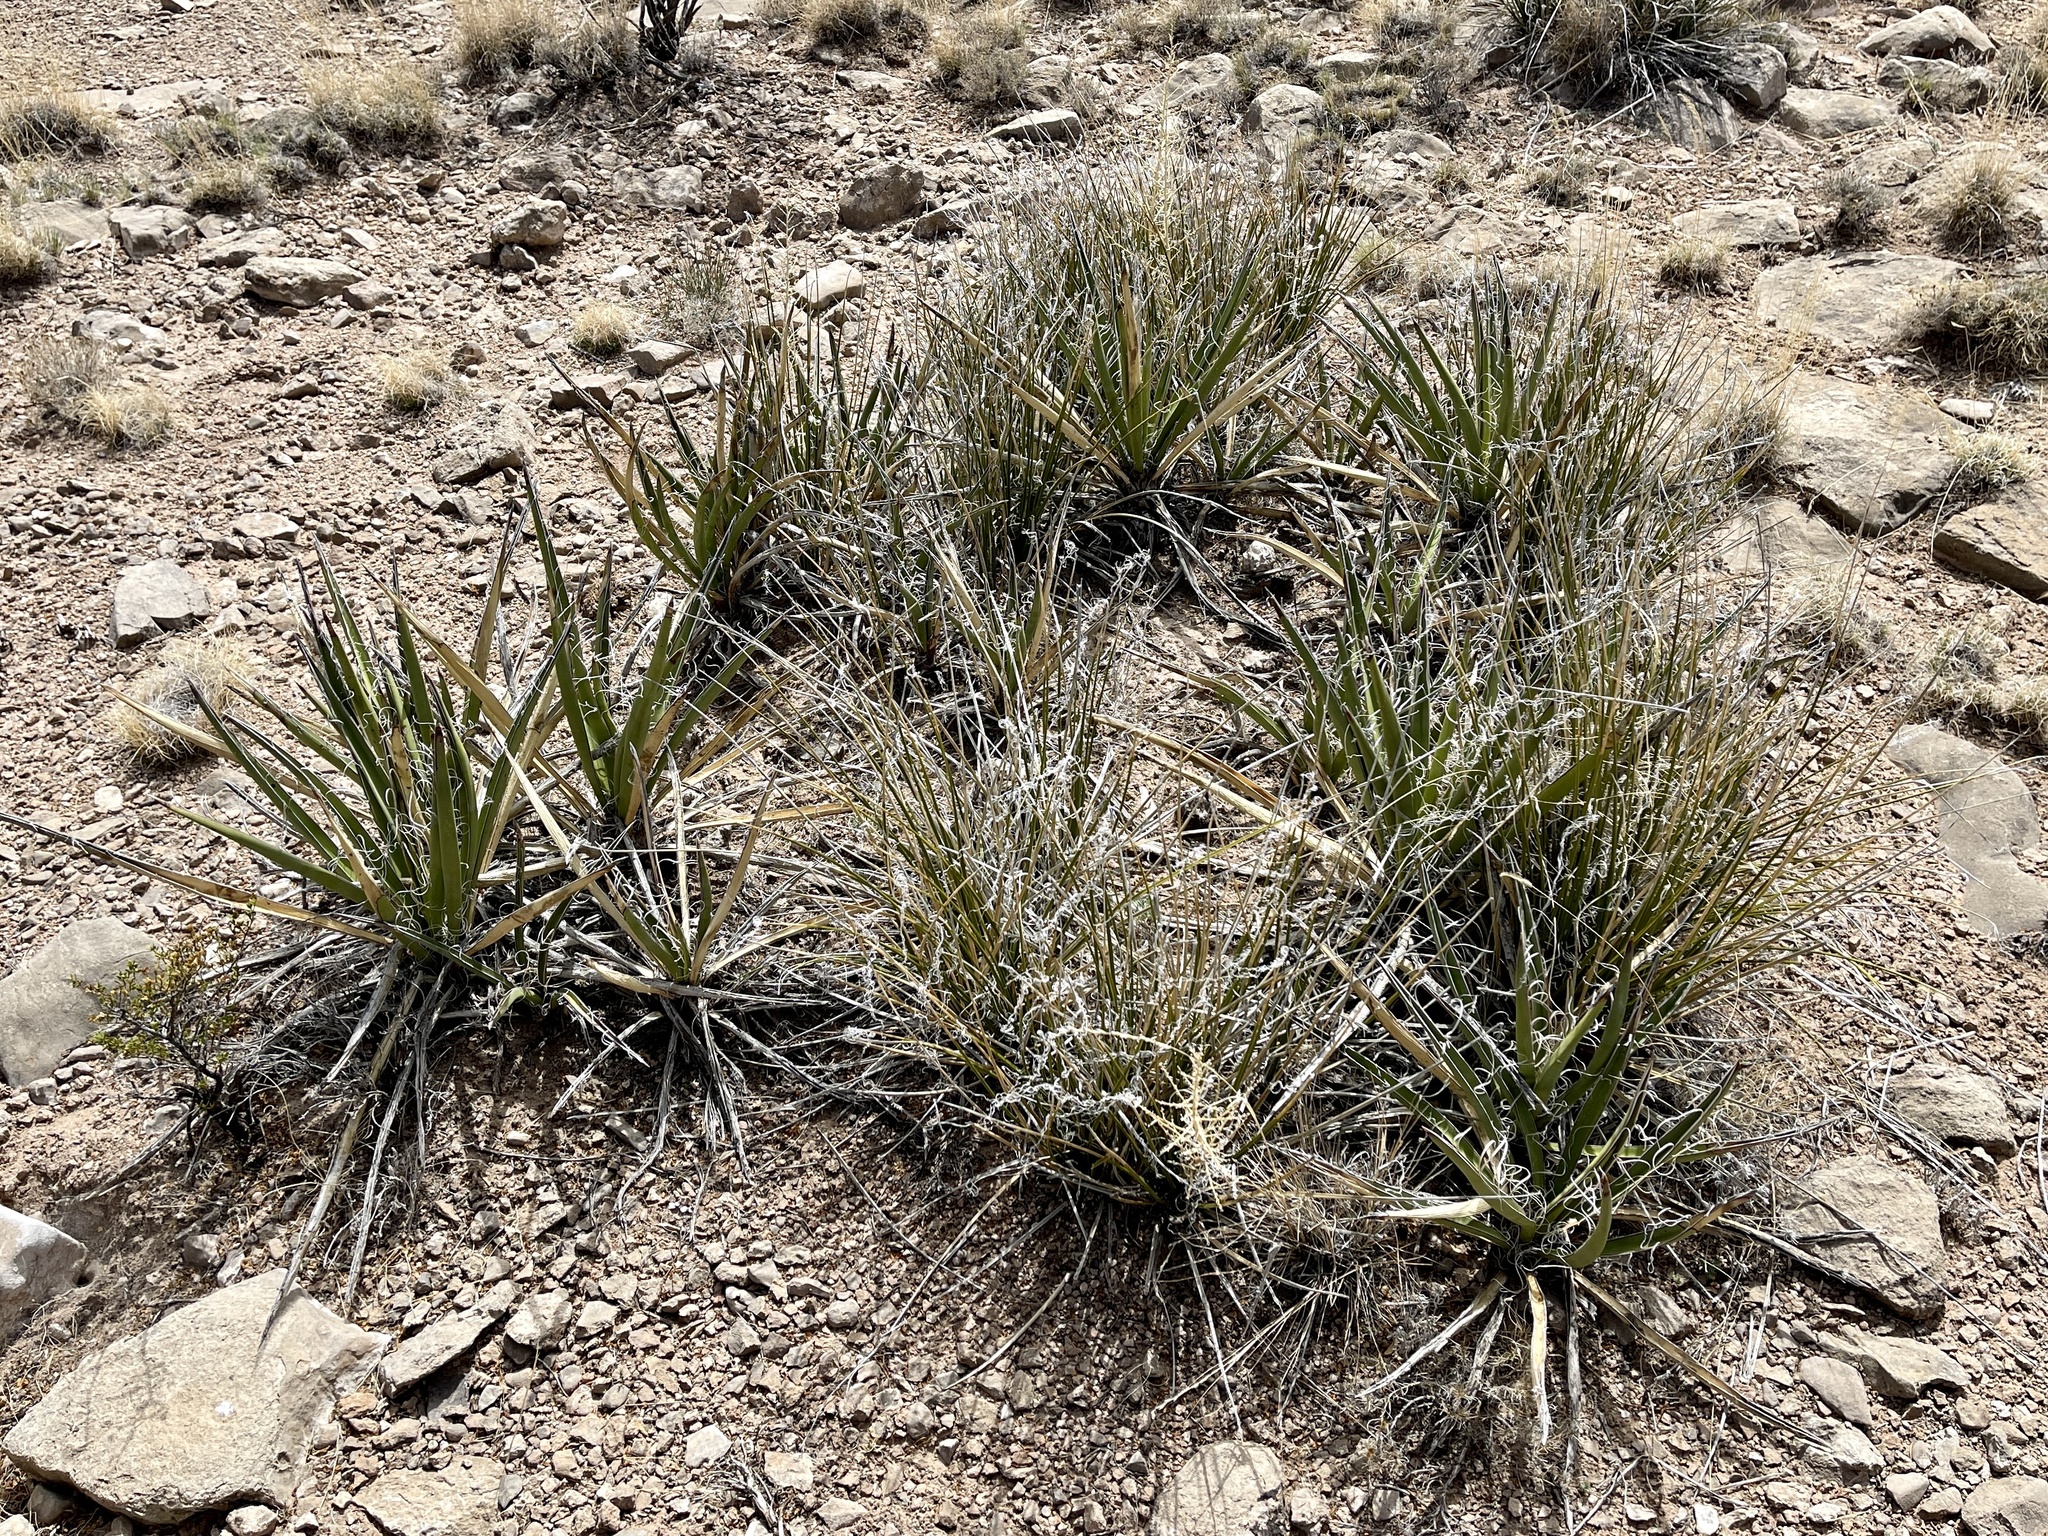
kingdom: Plantae
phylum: Tracheophyta
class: Liliopsida
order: Asparagales
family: Asparagaceae
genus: Yucca
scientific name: Yucca baccata
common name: Banana yucca
